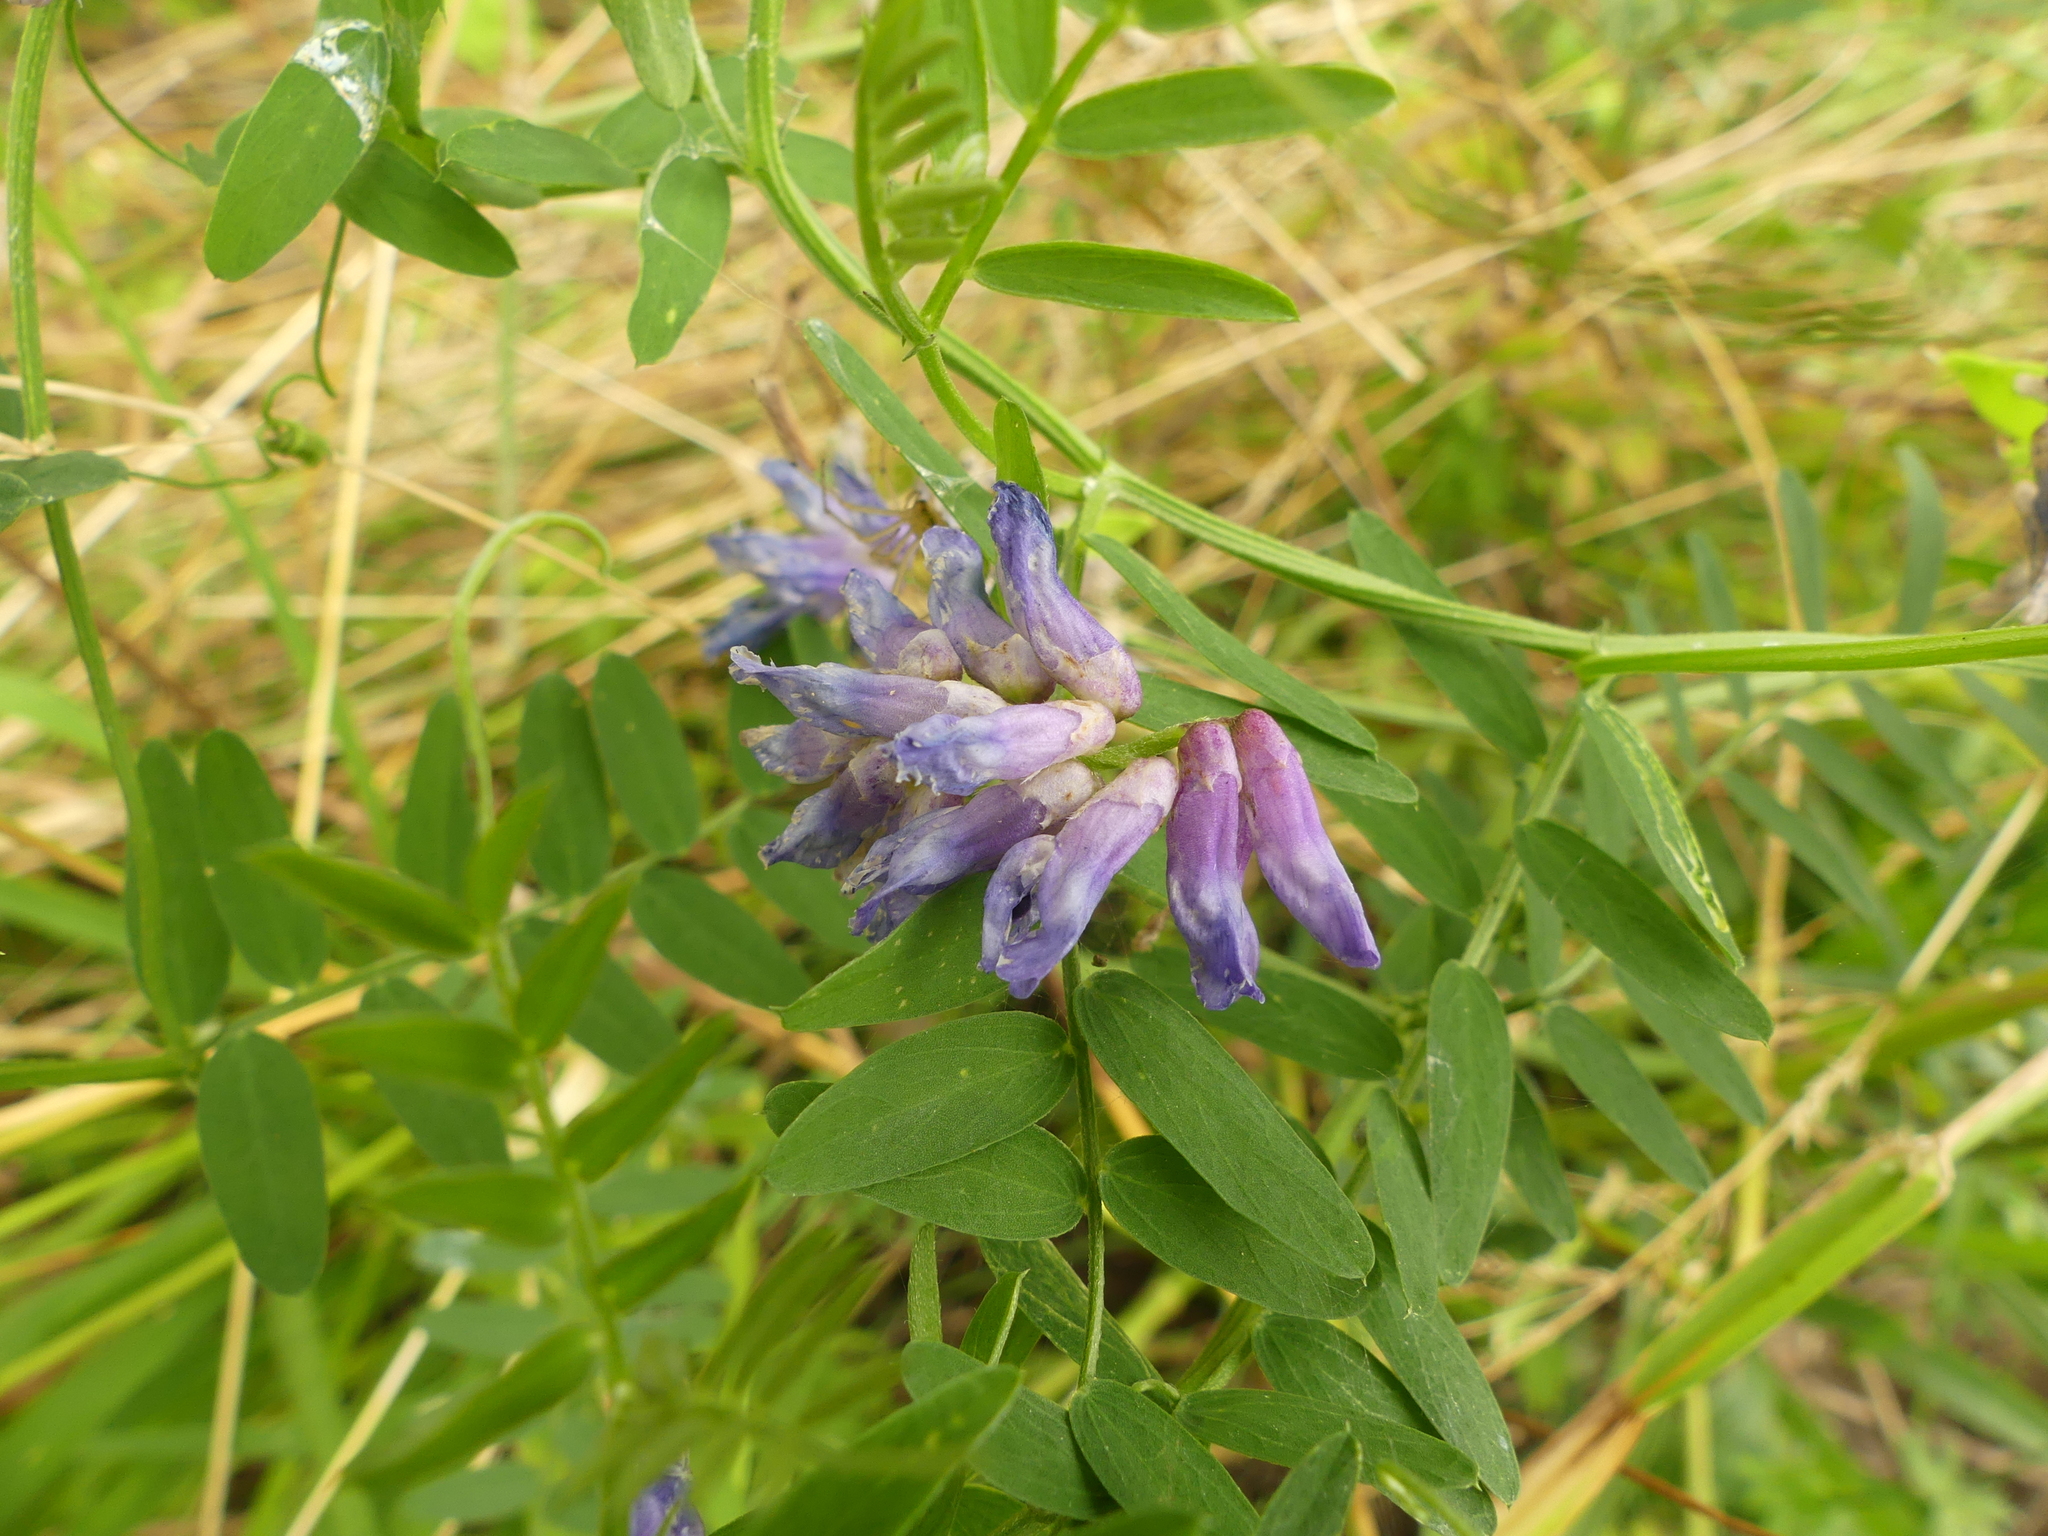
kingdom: Plantae
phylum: Tracheophyta
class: Magnoliopsida
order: Fabales
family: Fabaceae
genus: Vicia
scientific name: Vicia cracca
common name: Bird vetch
